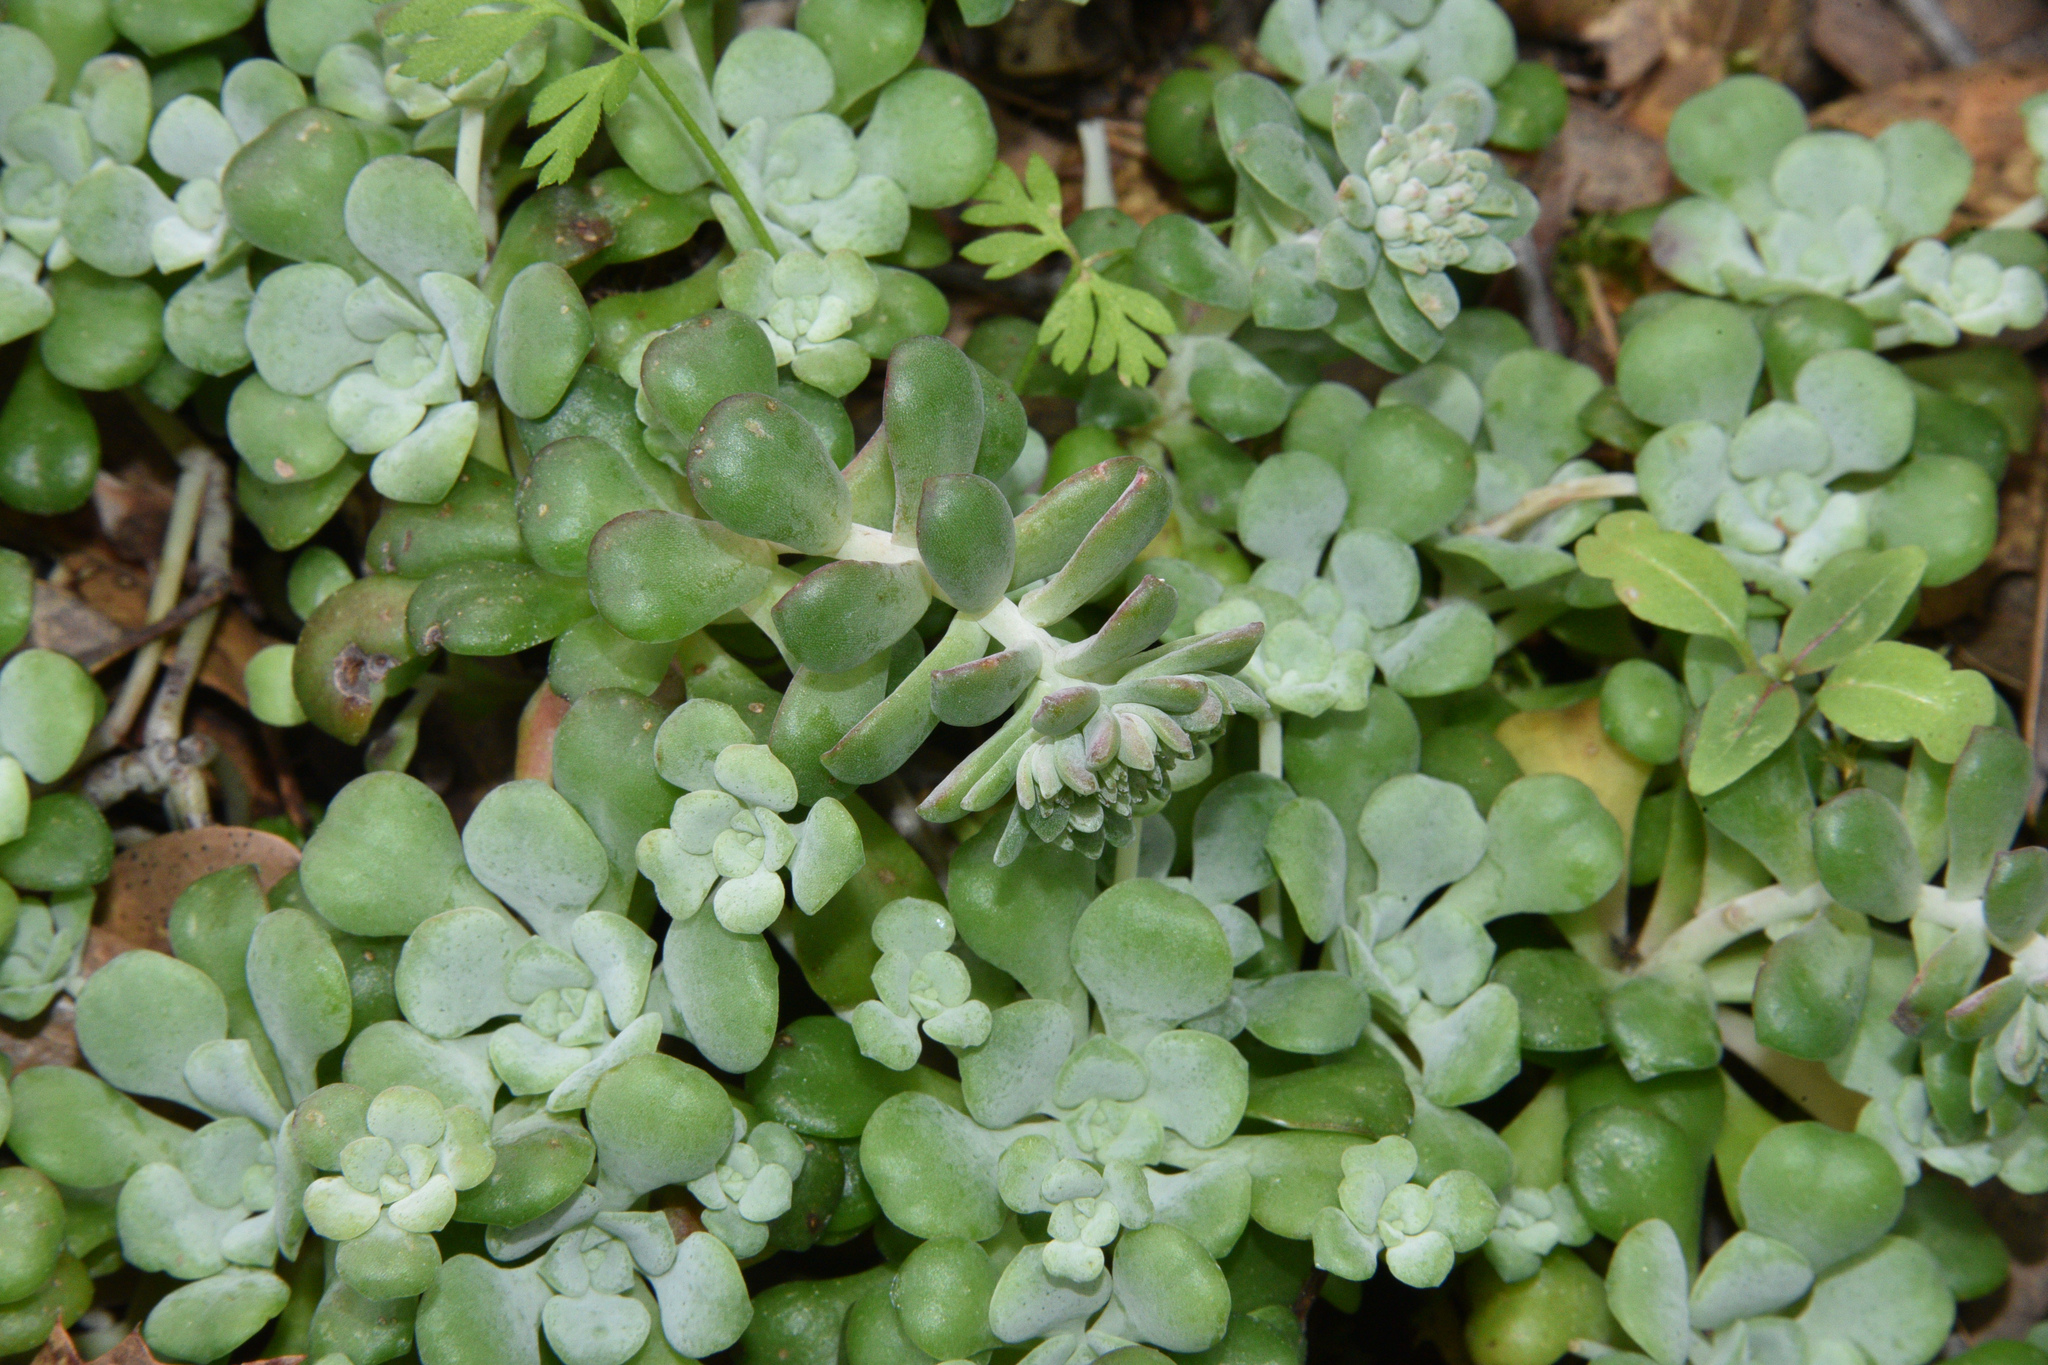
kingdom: Plantae
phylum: Tracheophyta
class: Magnoliopsida
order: Saxifragales
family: Crassulaceae
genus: Sedum
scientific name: Sedum spathulifolium
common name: Colorado stonecrop
